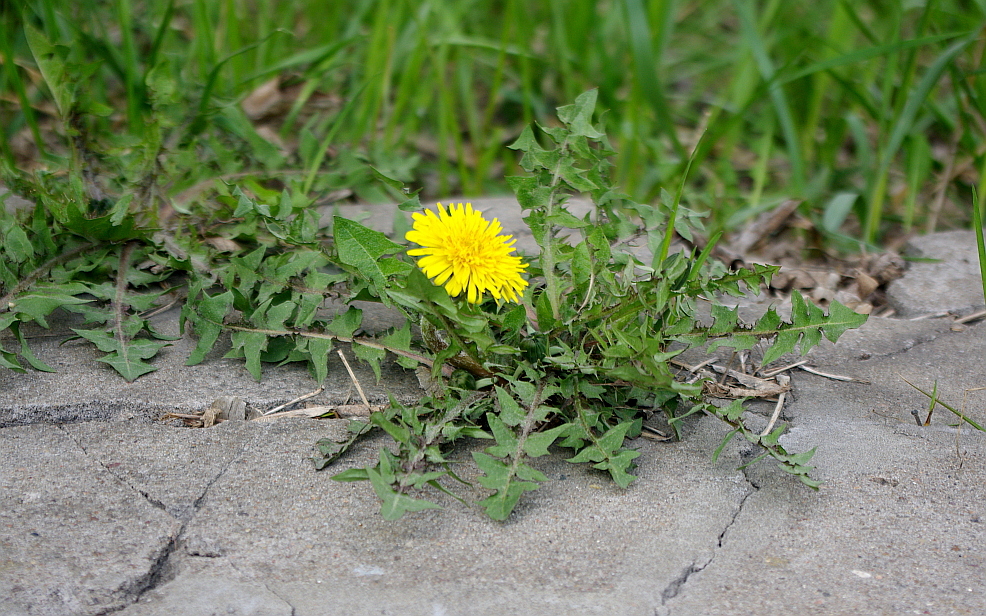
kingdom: Plantae
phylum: Tracheophyta
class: Magnoliopsida
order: Asterales
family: Asteraceae
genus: Taraxacum
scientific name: Taraxacum officinale
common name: Common dandelion
